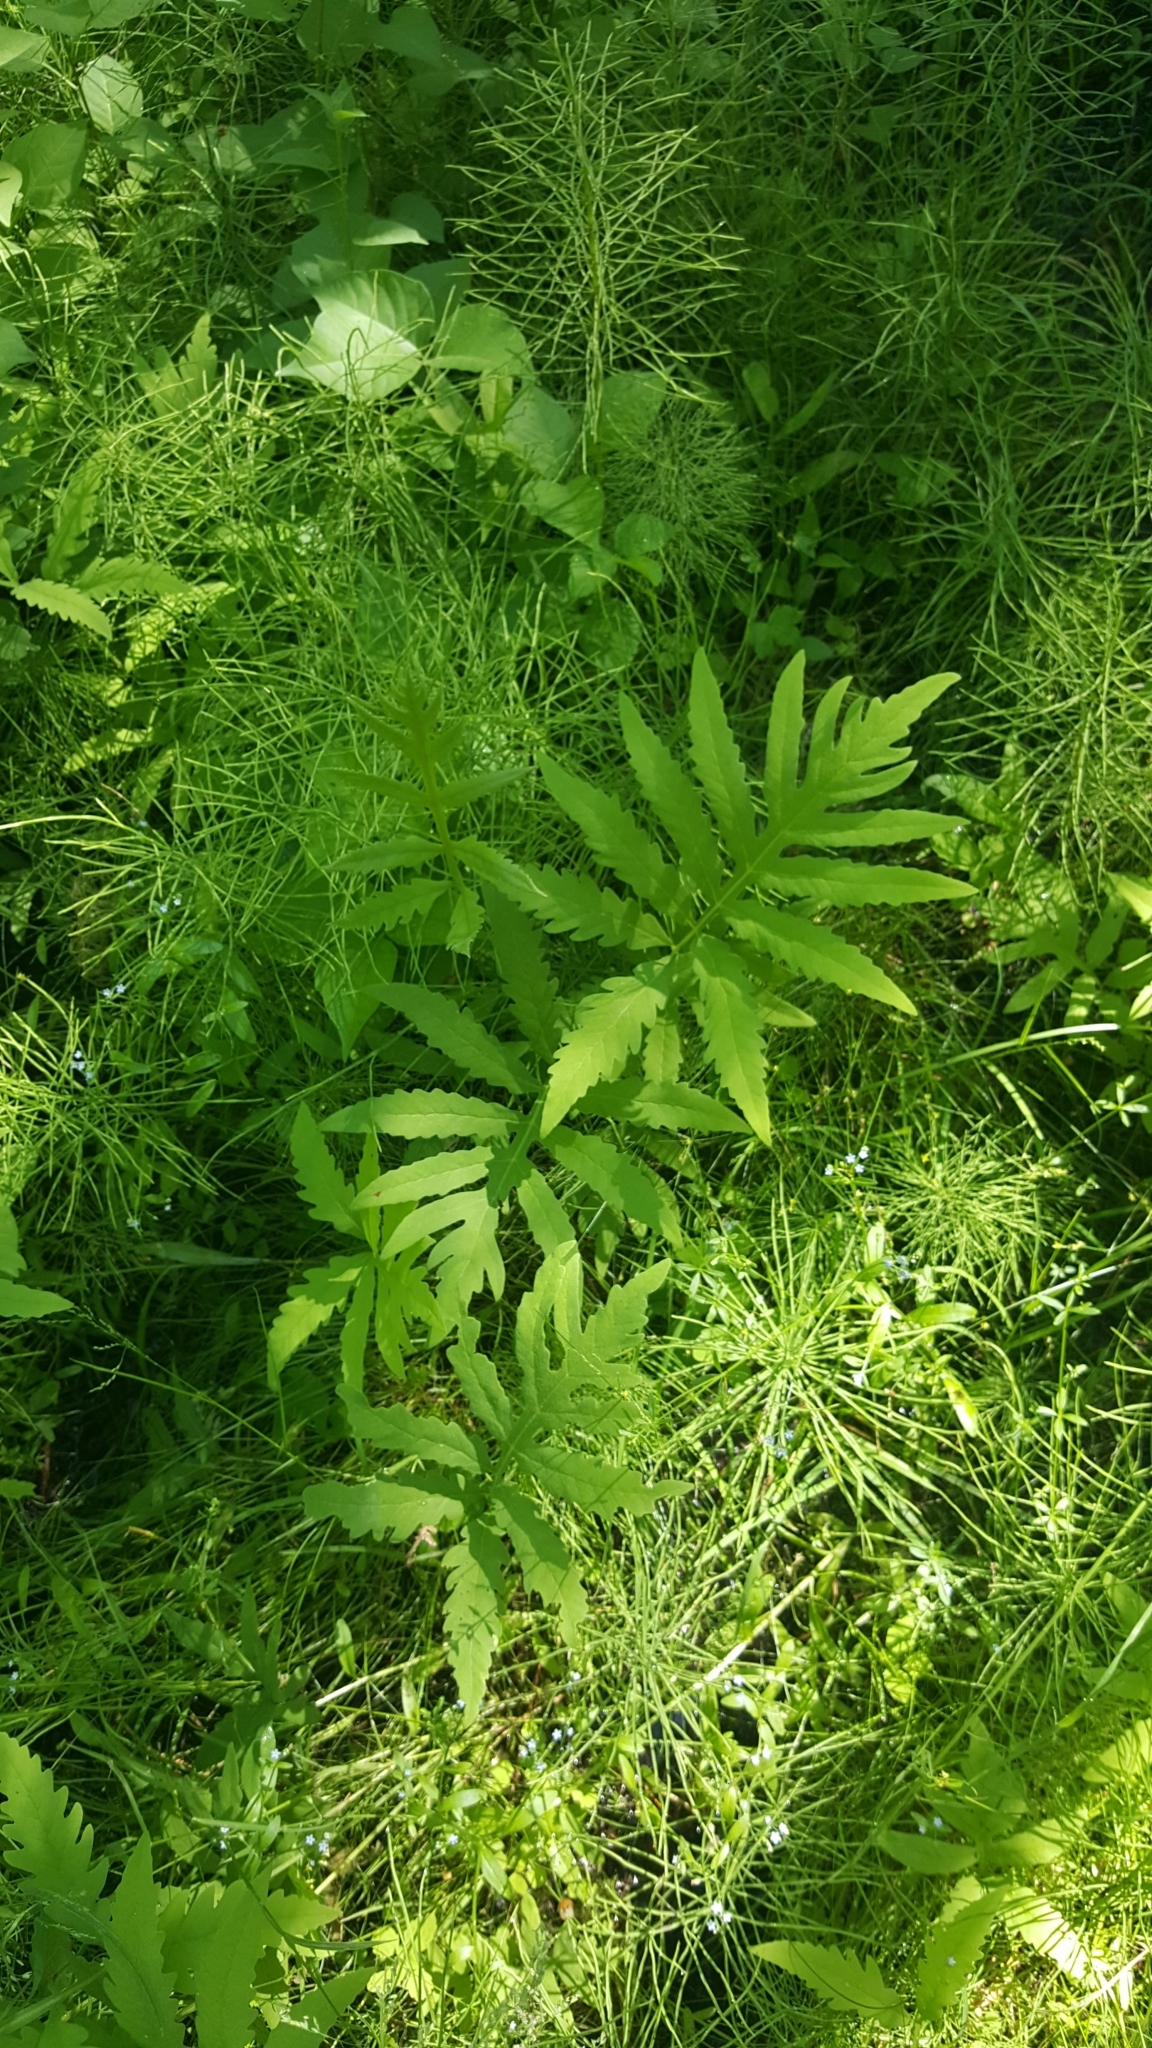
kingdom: Plantae
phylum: Tracheophyta
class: Polypodiopsida
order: Polypodiales
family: Onocleaceae
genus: Onoclea
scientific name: Onoclea sensibilis
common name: Sensitive fern
